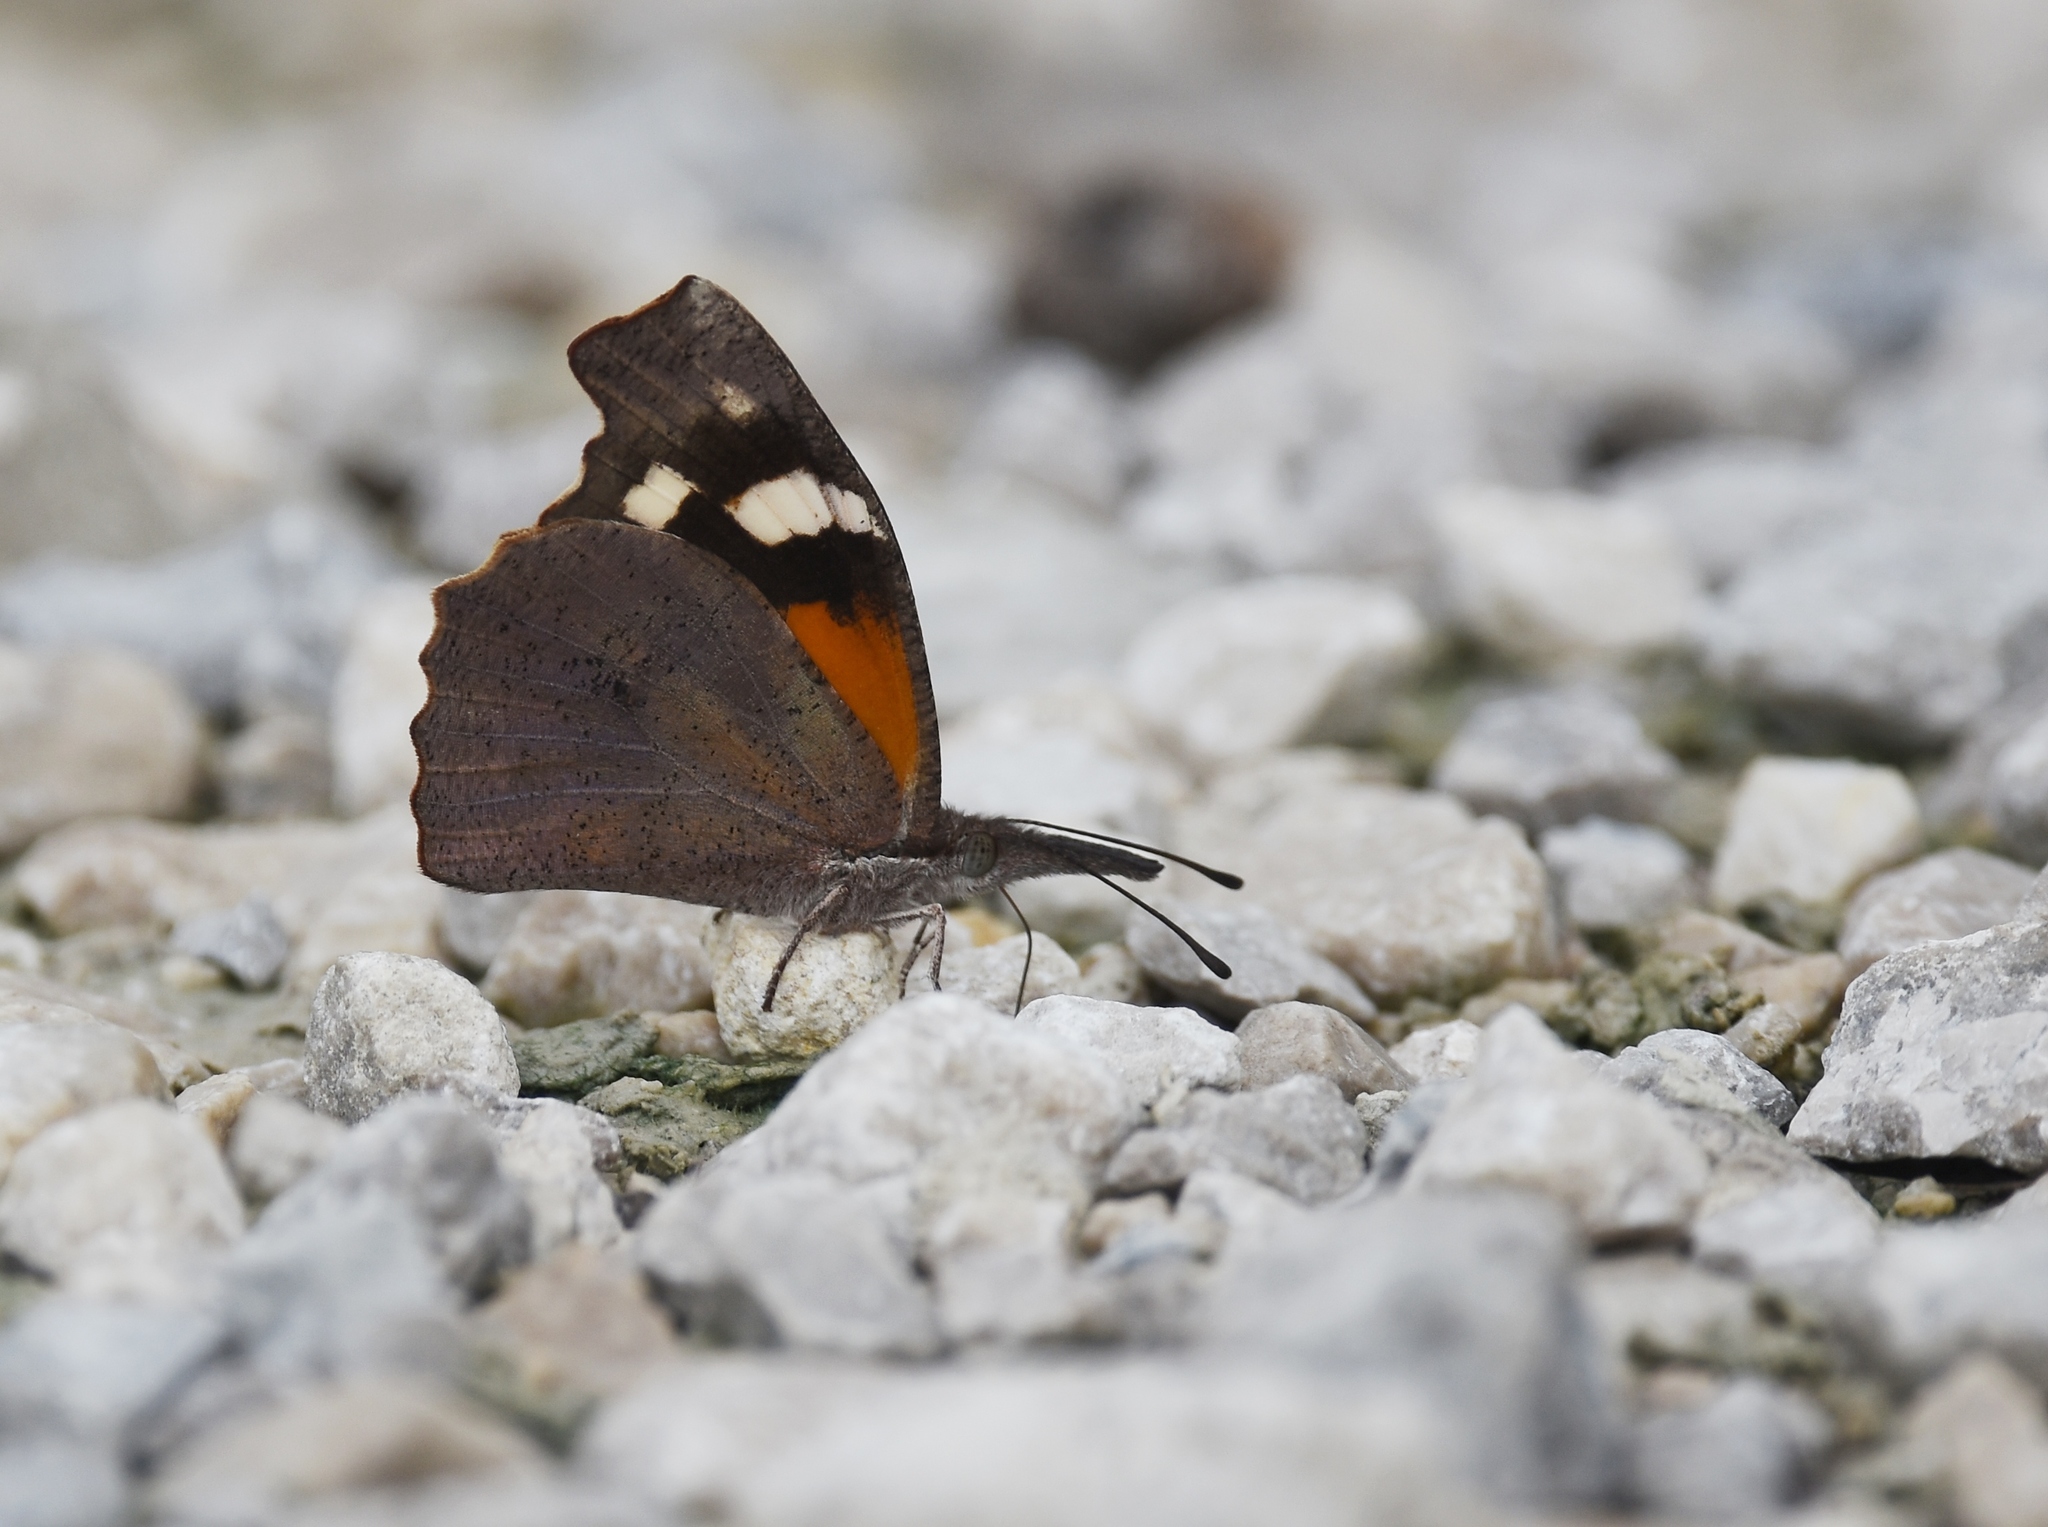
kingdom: Animalia
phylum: Arthropoda
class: Insecta
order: Lepidoptera
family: Nymphalidae
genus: Libytheana
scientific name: Libytheana carinenta
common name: American snout
